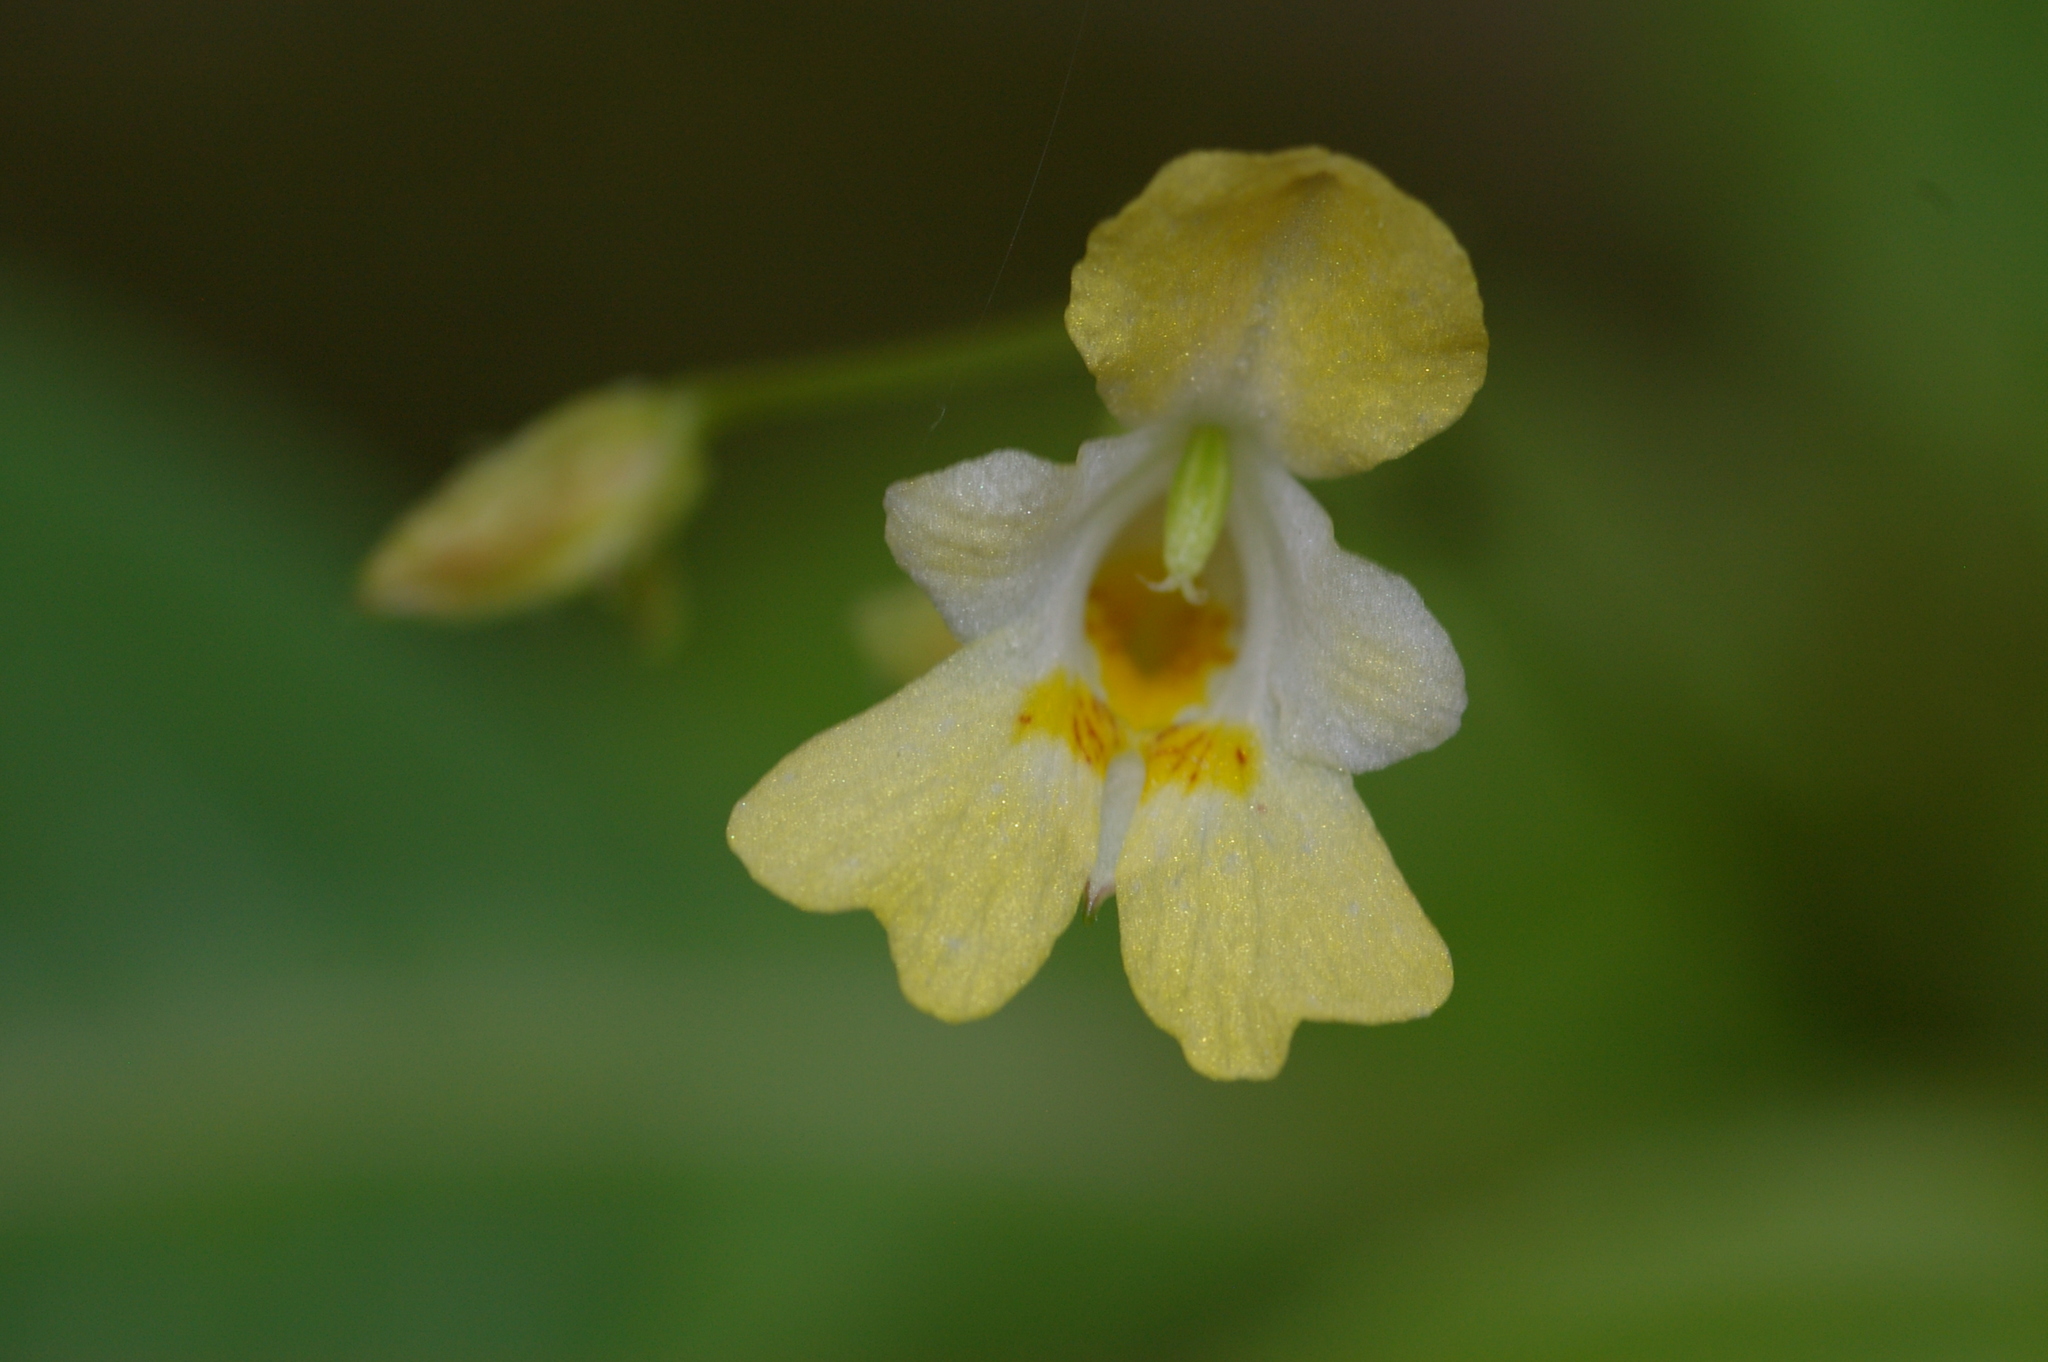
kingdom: Plantae
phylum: Tracheophyta
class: Magnoliopsida
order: Ericales
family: Balsaminaceae
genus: Impatiens
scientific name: Impatiens parviflora
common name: Small balsam
